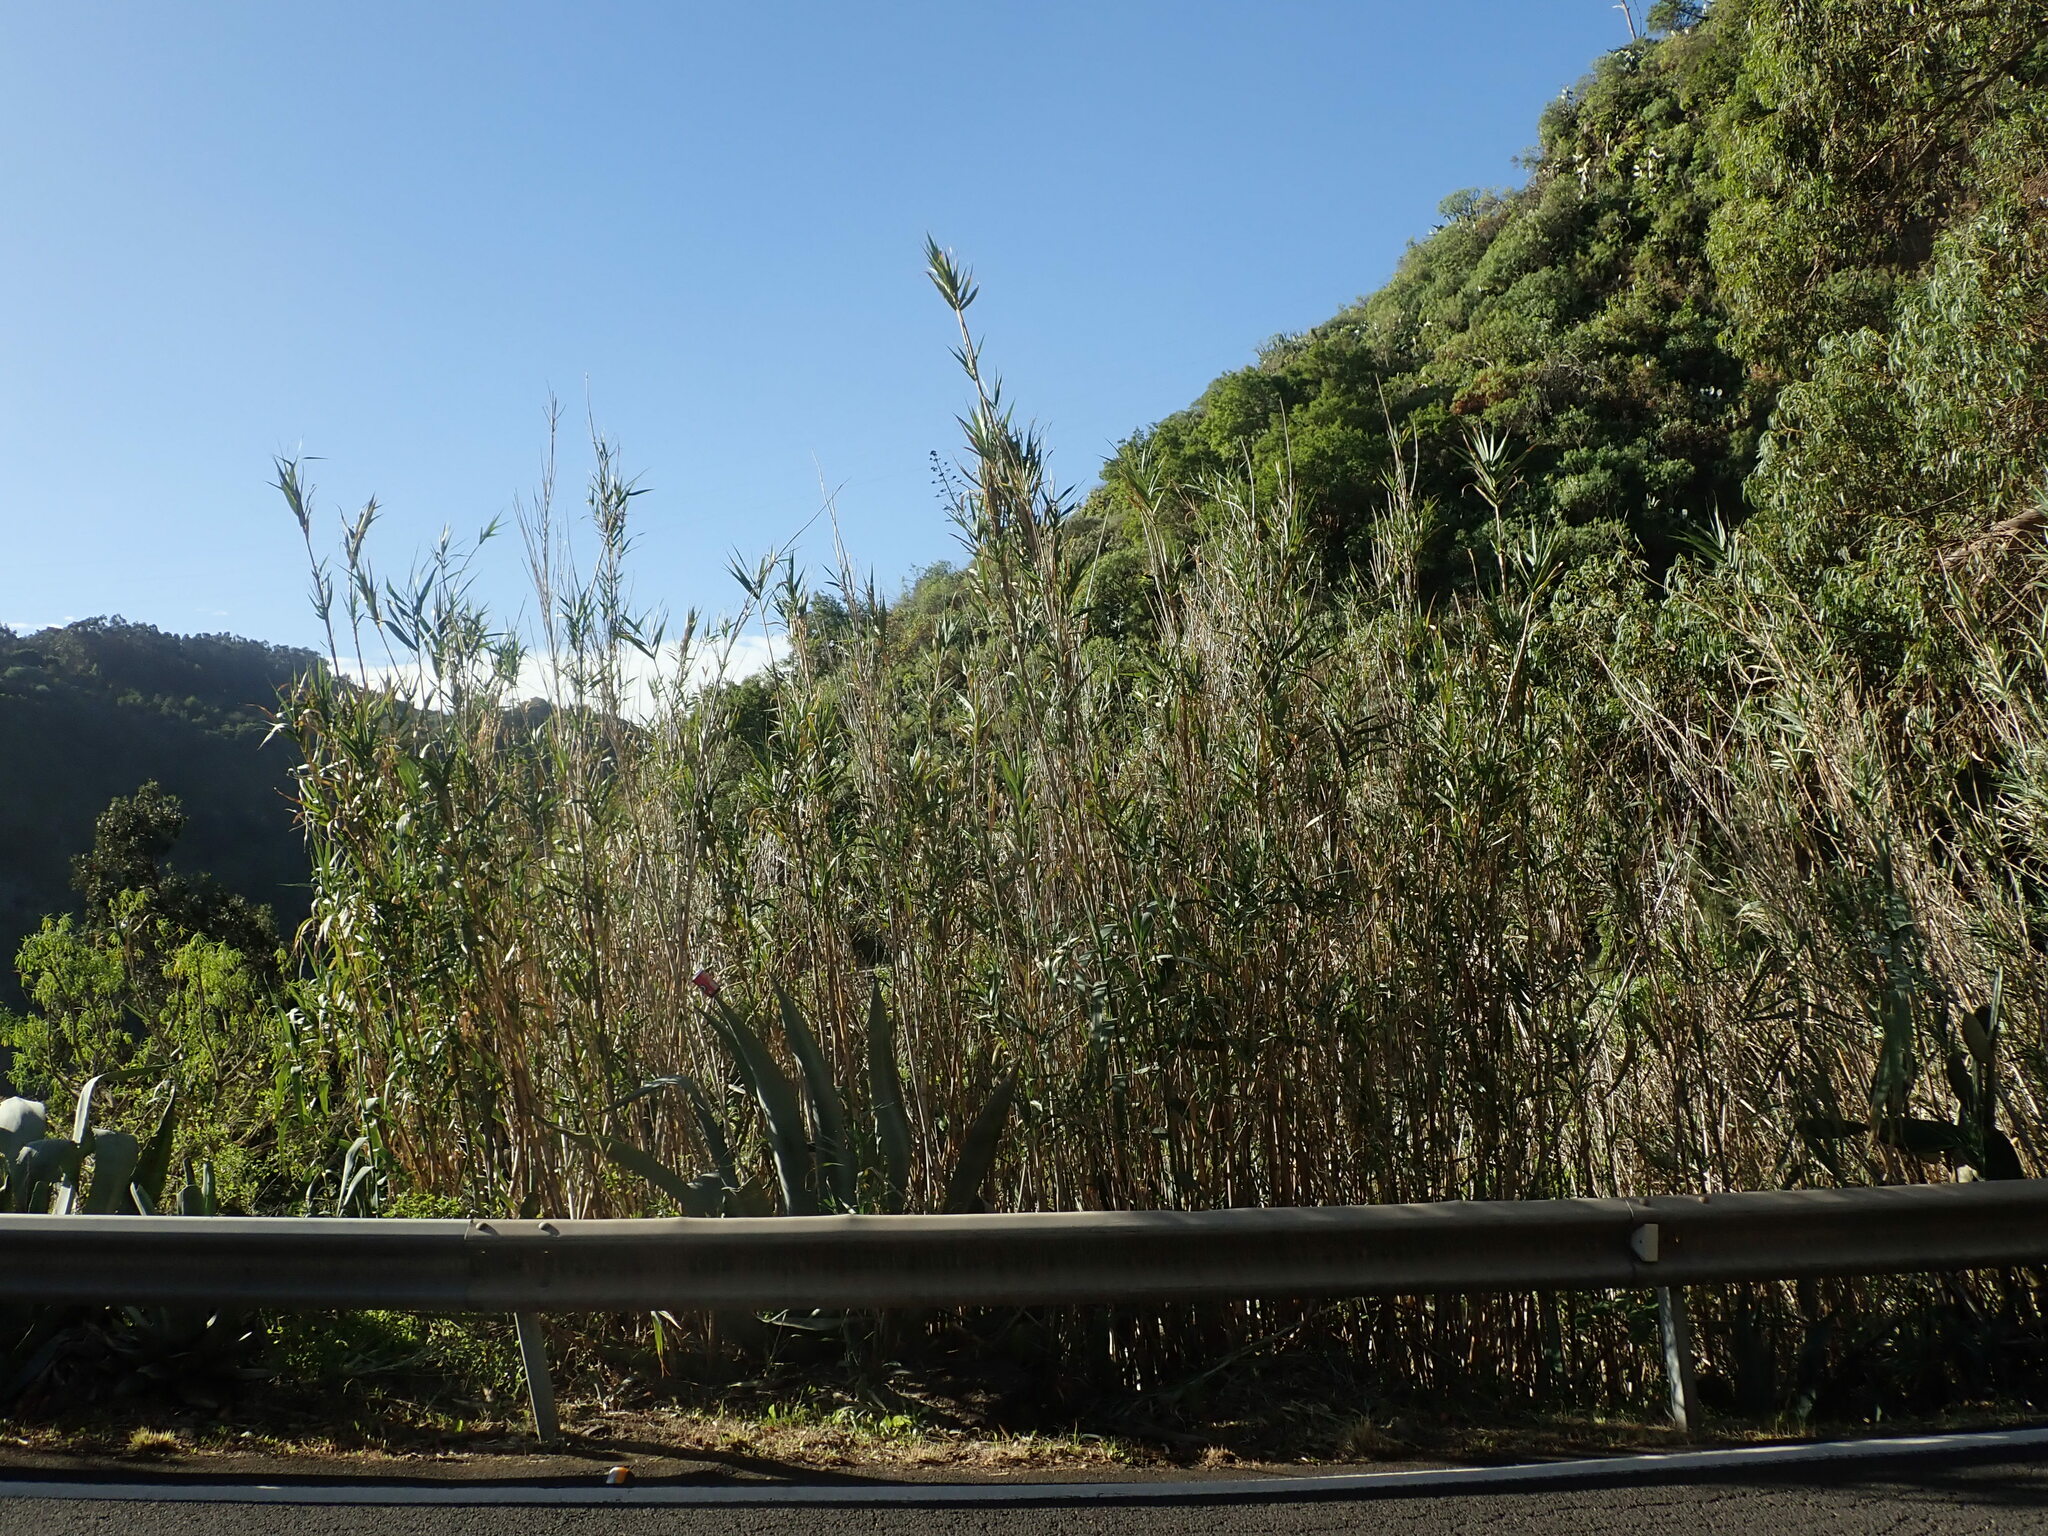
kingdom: Plantae
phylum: Tracheophyta
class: Liliopsida
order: Poales
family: Poaceae
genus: Arundo
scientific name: Arundo donax
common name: Giant reed
